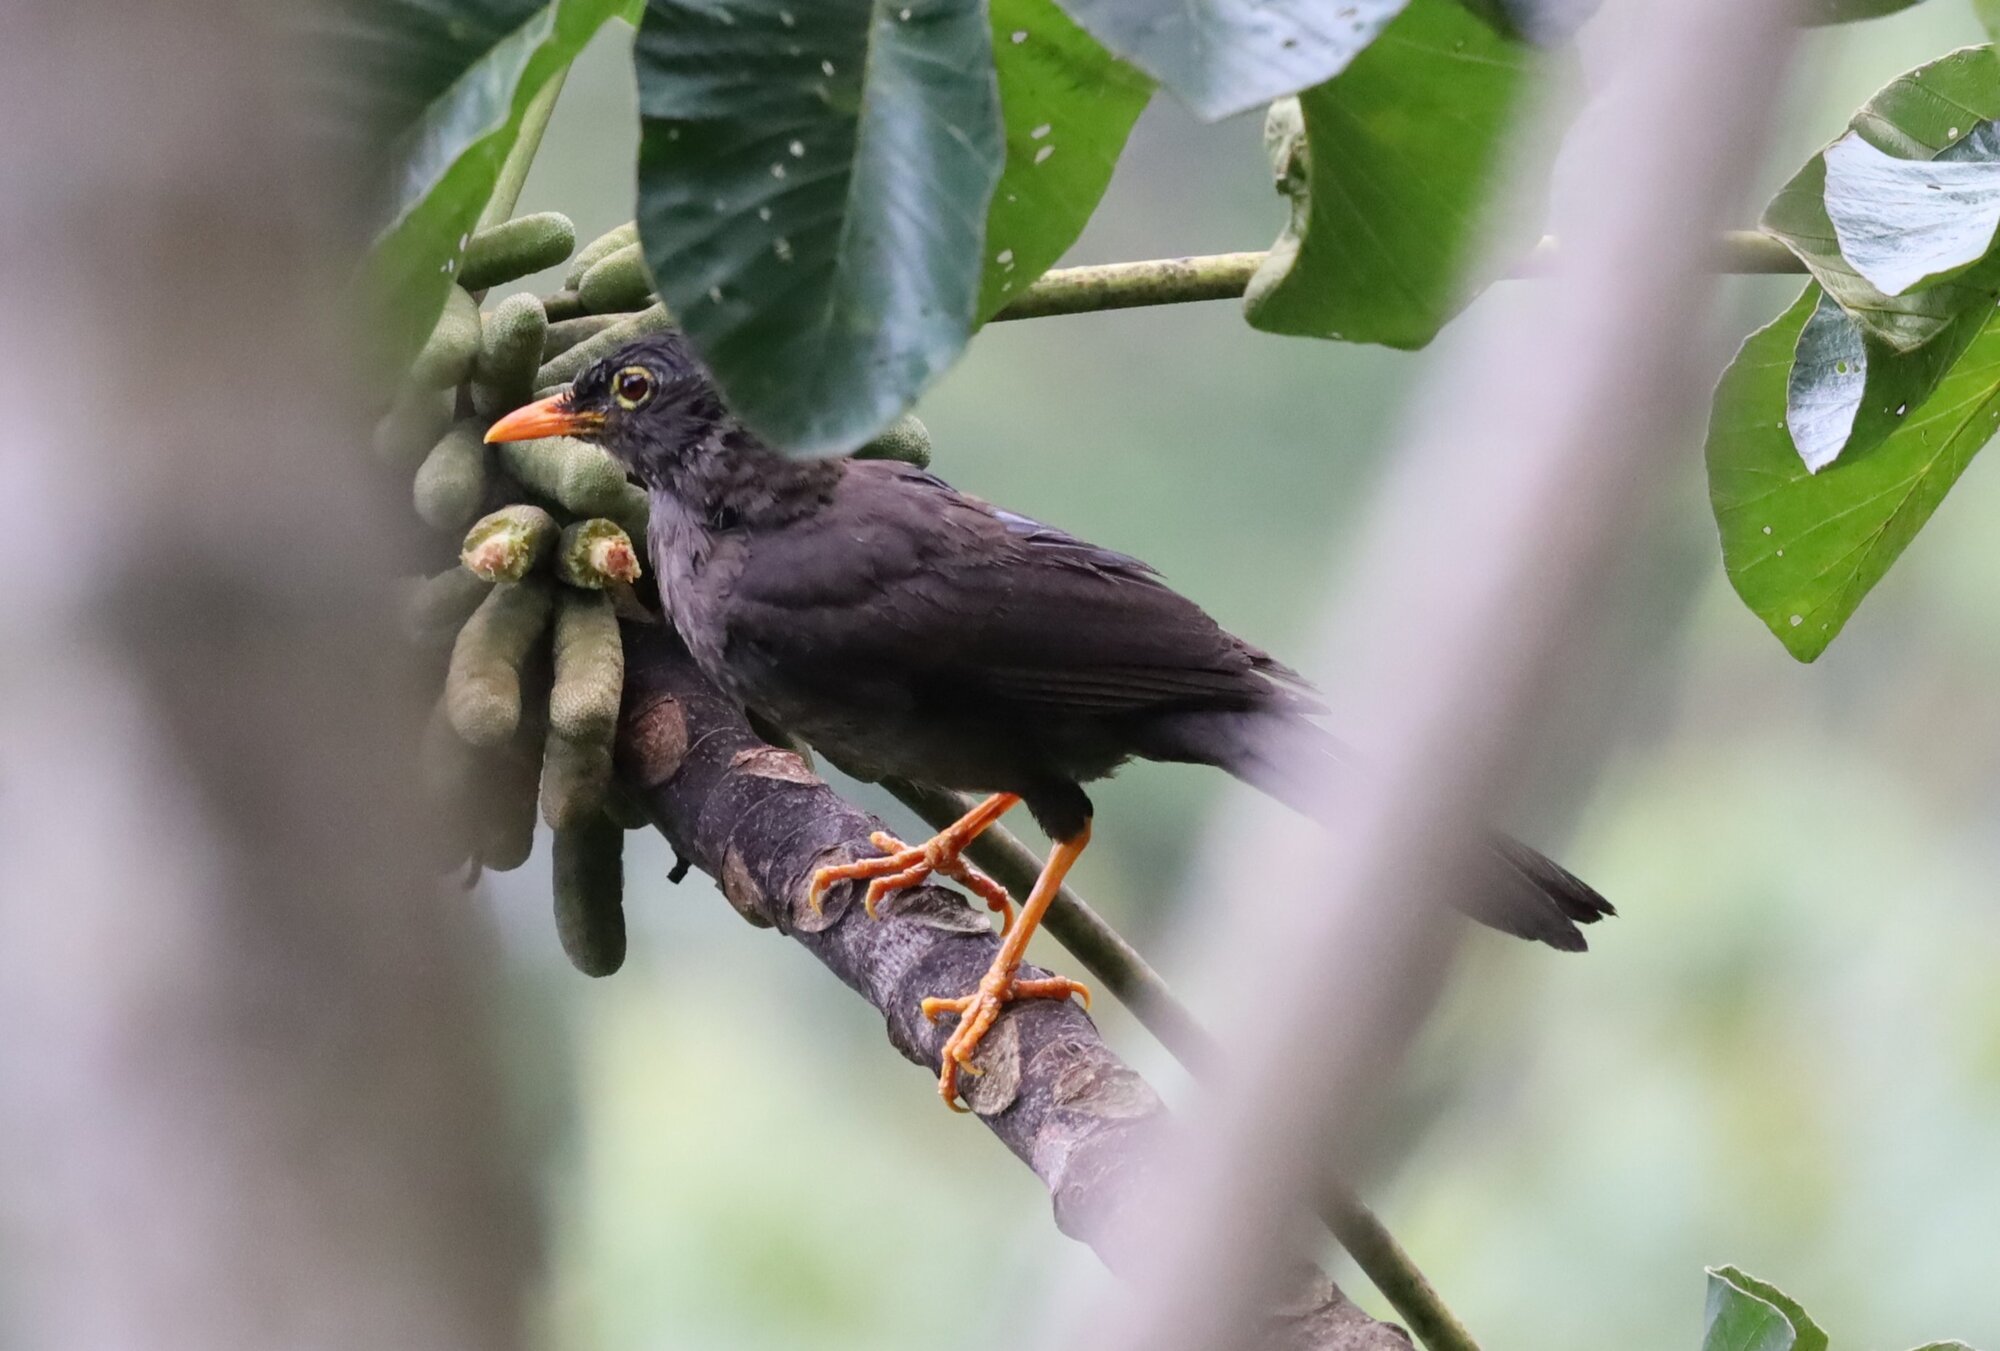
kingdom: Animalia
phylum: Chordata
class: Aves
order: Passeriformes
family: Turdidae
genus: Turdus
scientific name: Turdus fuscater
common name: Great thrush
